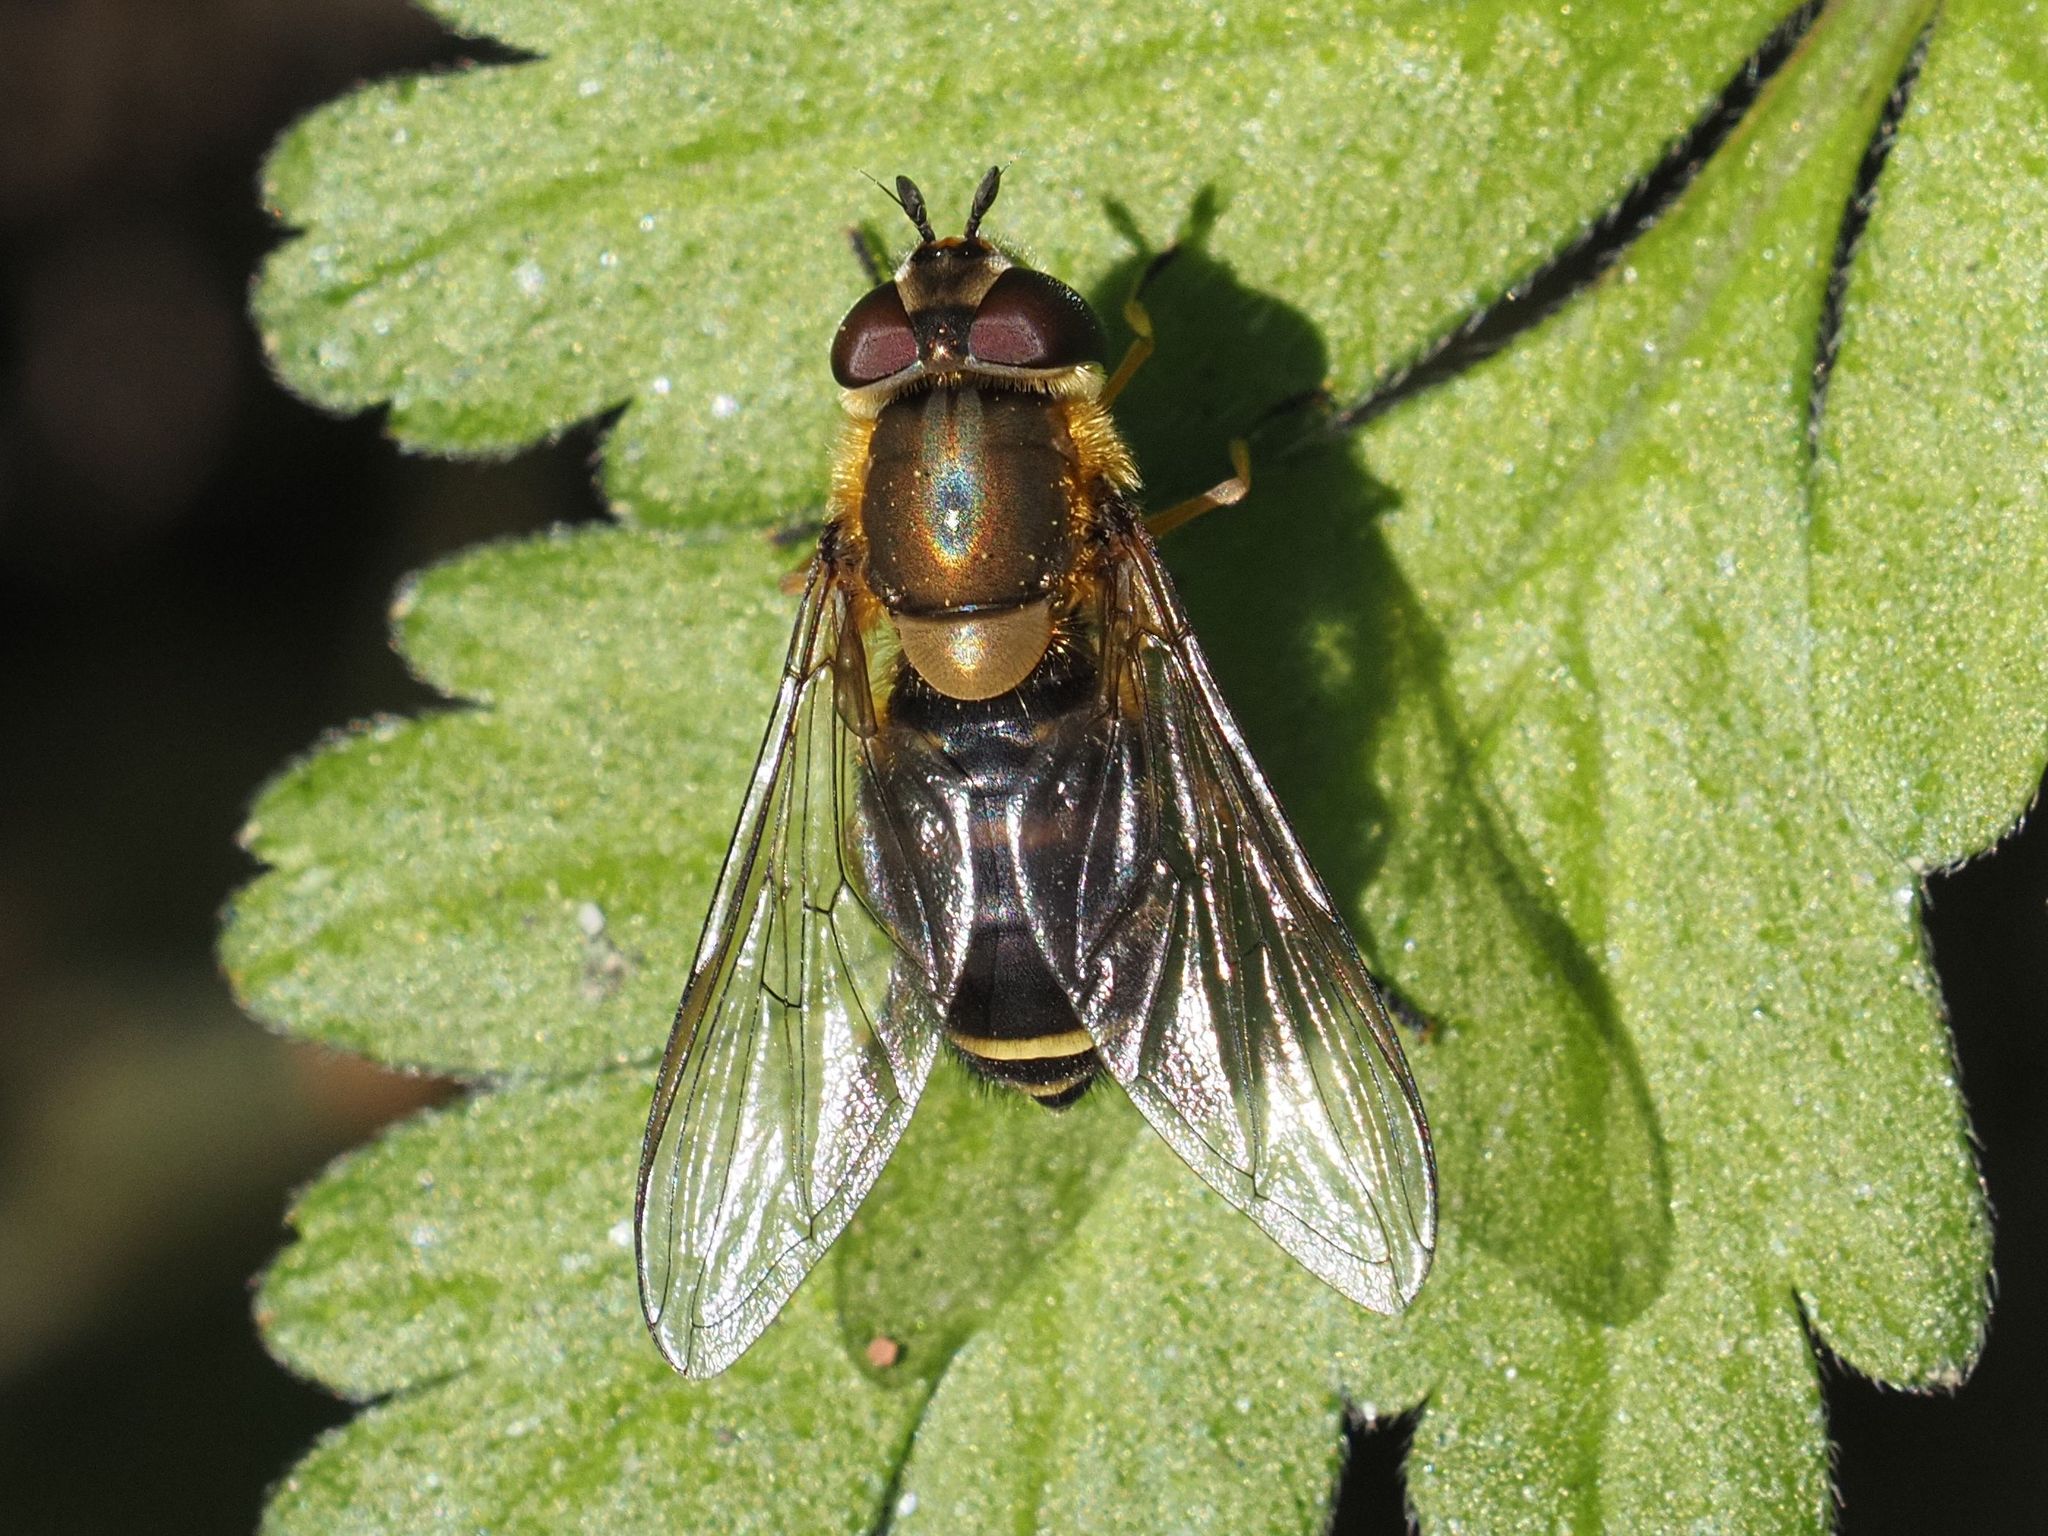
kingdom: Animalia
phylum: Arthropoda
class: Insecta
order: Diptera
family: Syrphidae
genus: Syrphus
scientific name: Syrphus torvus
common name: Hairy-eyed flower fly
